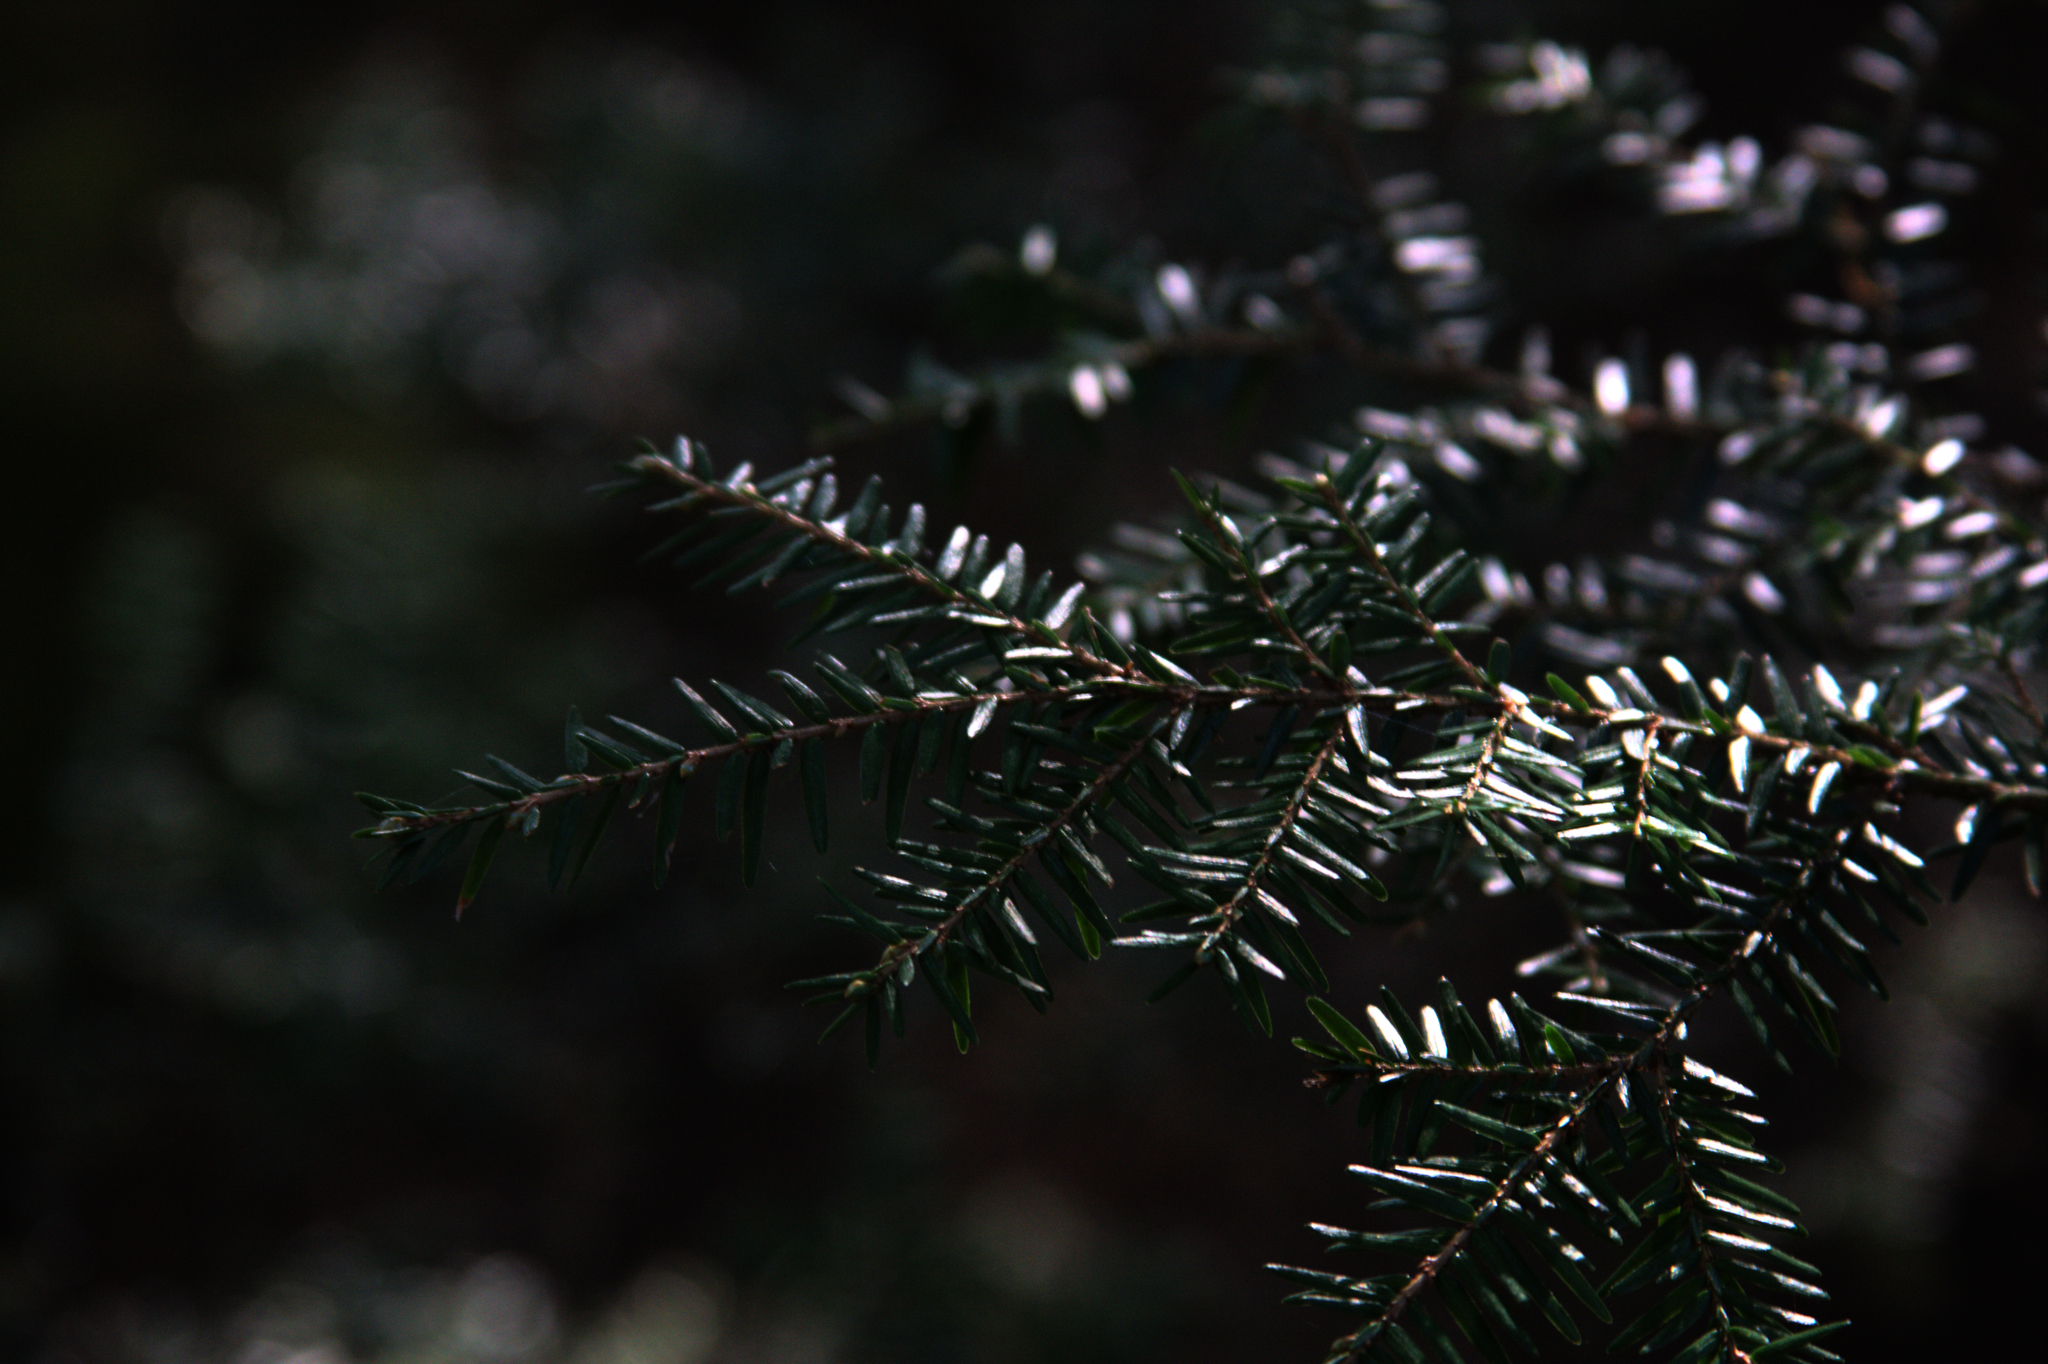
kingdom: Plantae
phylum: Tracheophyta
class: Pinopsida
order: Pinales
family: Pinaceae
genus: Tsuga
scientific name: Tsuga canadensis
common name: Eastern hemlock
